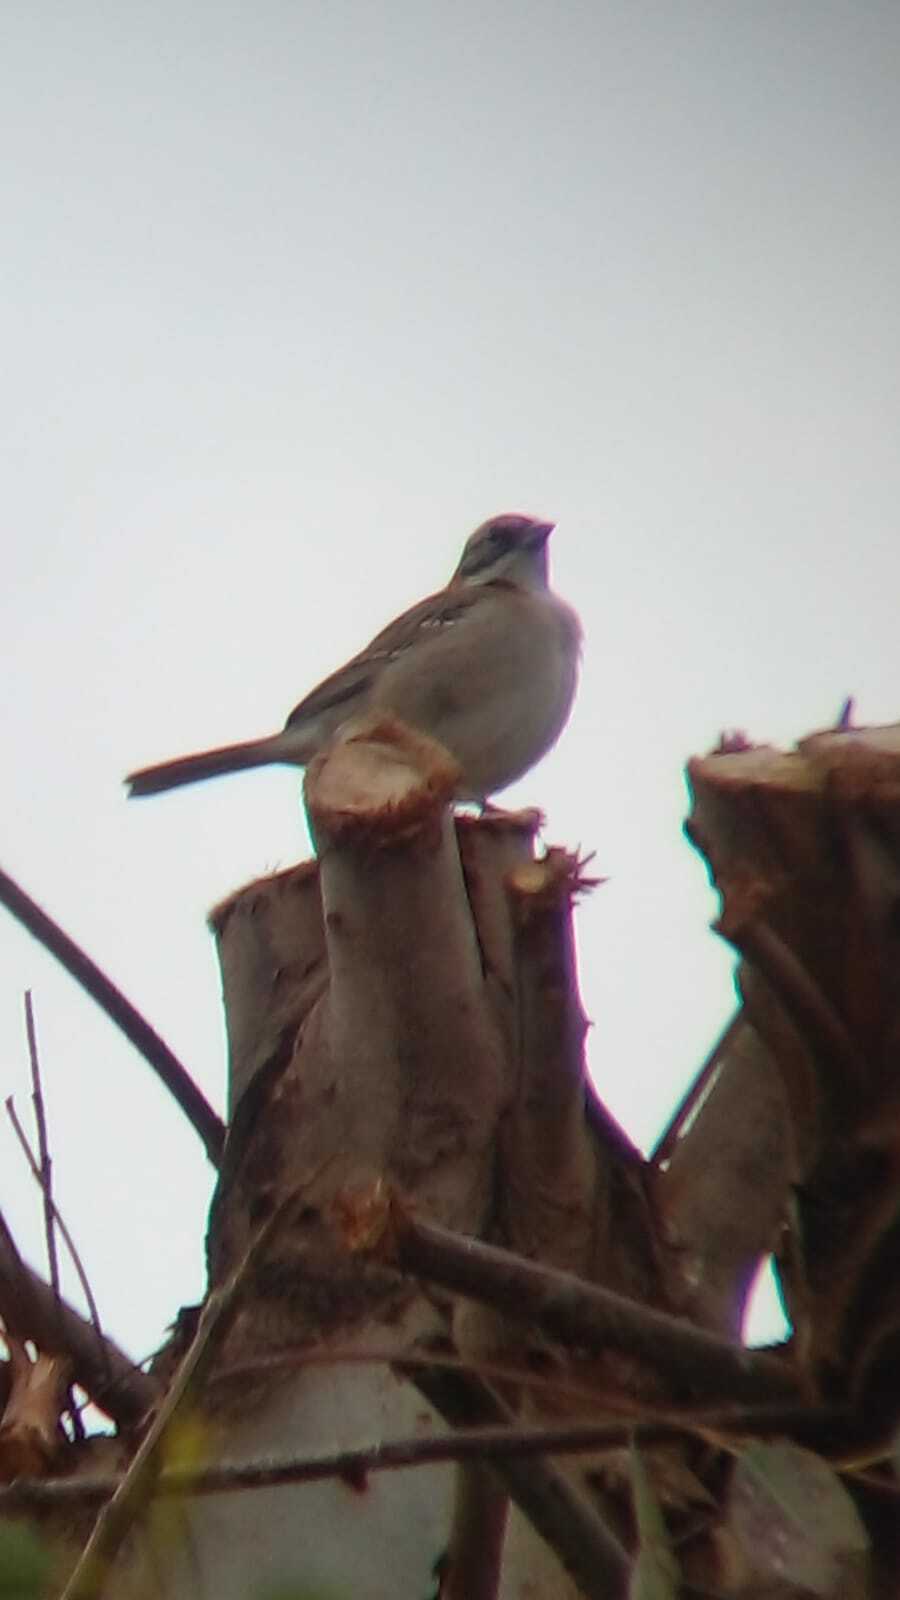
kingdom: Animalia
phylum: Chordata
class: Aves
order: Passeriformes
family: Passerellidae
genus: Zonotrichia
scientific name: Zonotrichia capensis
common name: Rufous-collared sparrow
